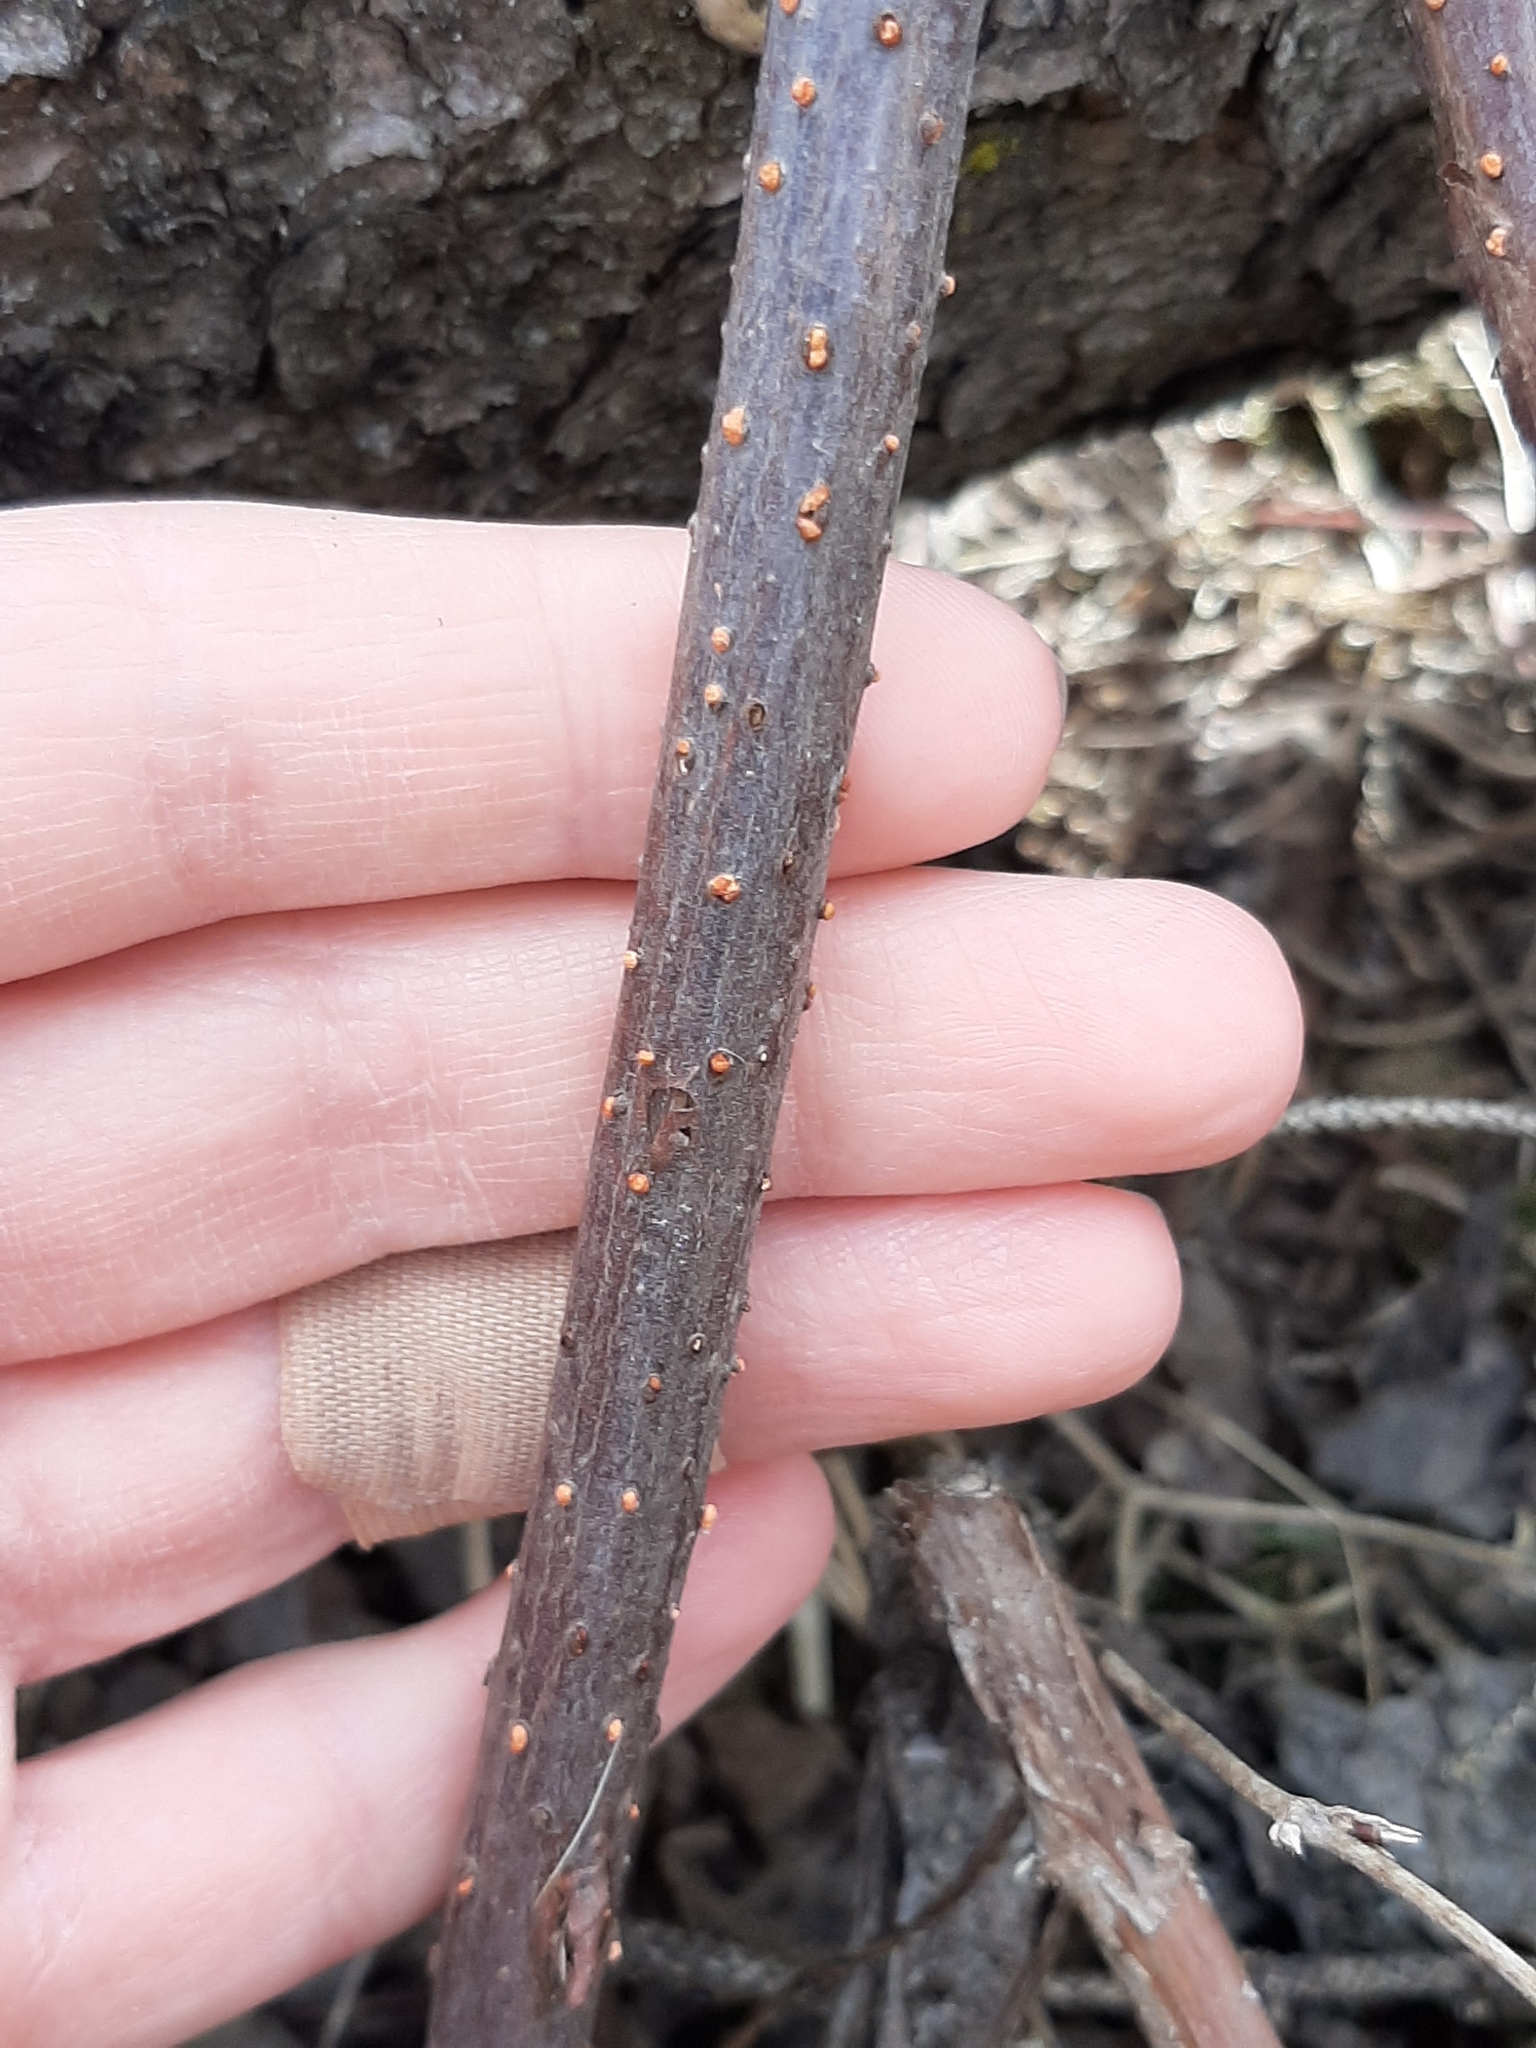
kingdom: Fungi
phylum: Ascomycota
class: Sordariomycetes
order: Hypocreales
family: Nectriaceae
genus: Nectria
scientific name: Nectria cinnabarina
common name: Coral spot
